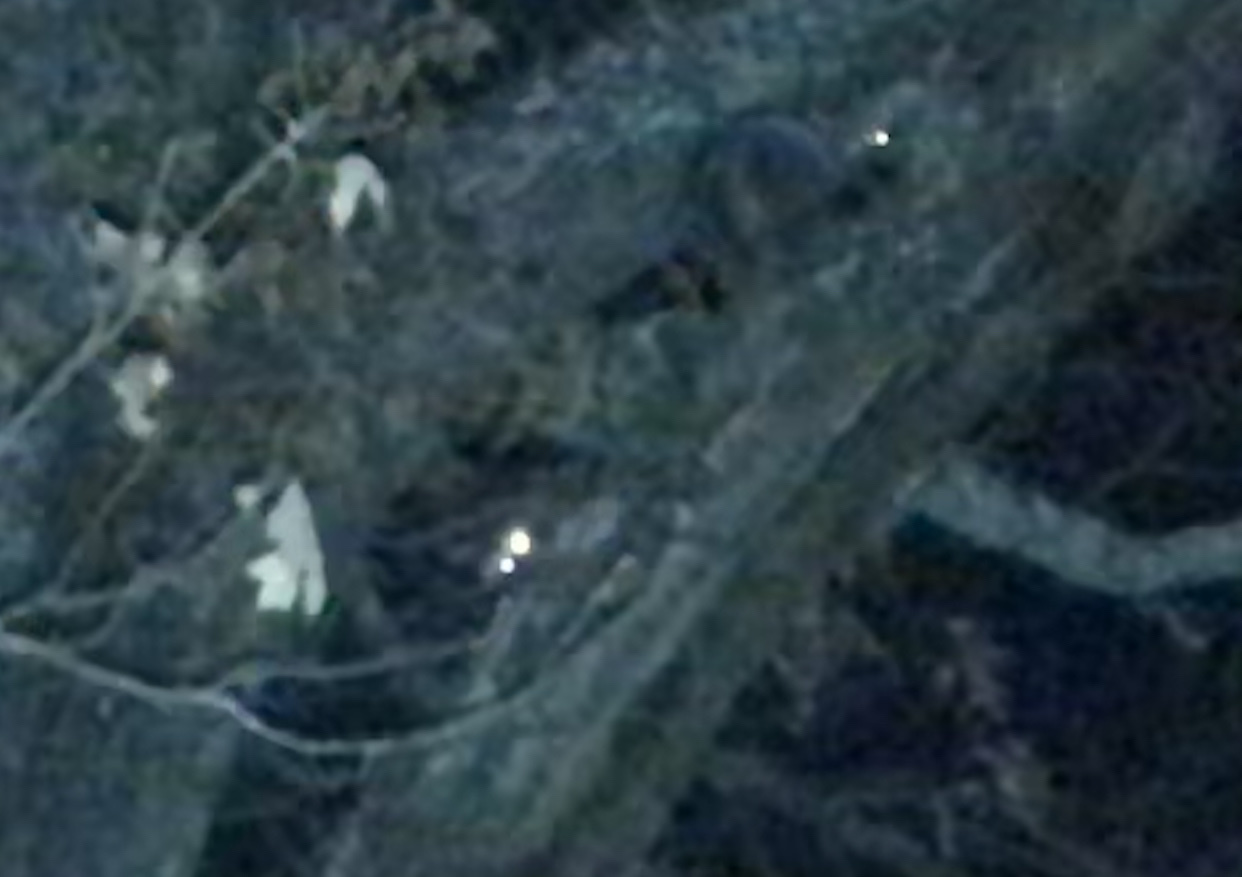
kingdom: Animalia
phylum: Chordata
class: Mammalia
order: Carnivora
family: Procyonidae
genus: Procyon
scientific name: Procyon lotor
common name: Raccoon
